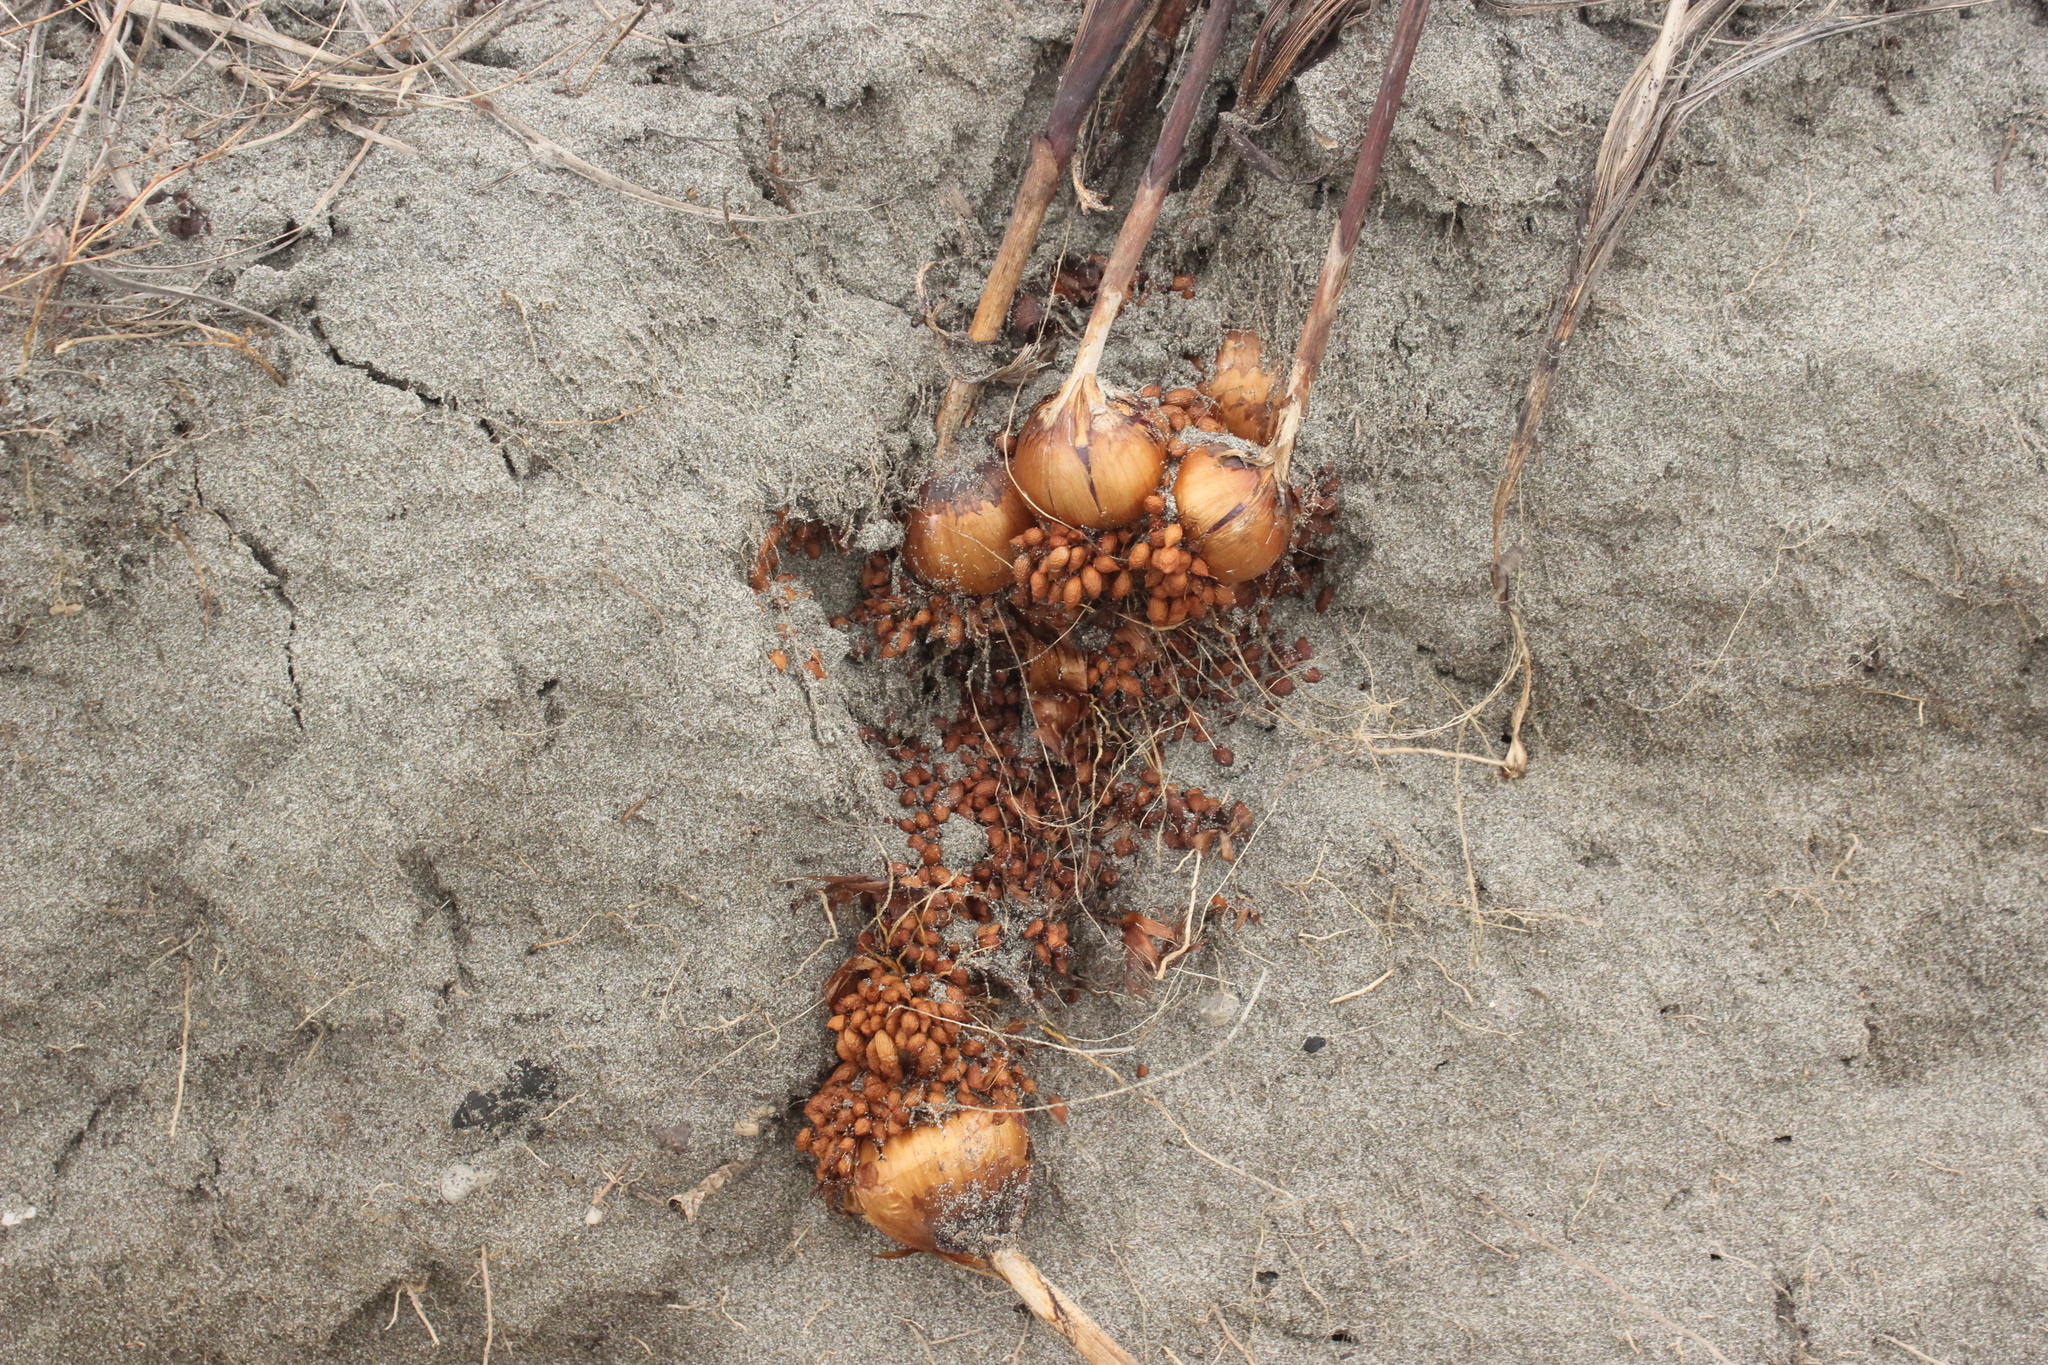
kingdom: Plantae
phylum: Tracheophyta
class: Liliopsida
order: Asparagales
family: Iridaceae
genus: Gladiolus
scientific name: Gladiolus undulatus
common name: Large painted-lady
